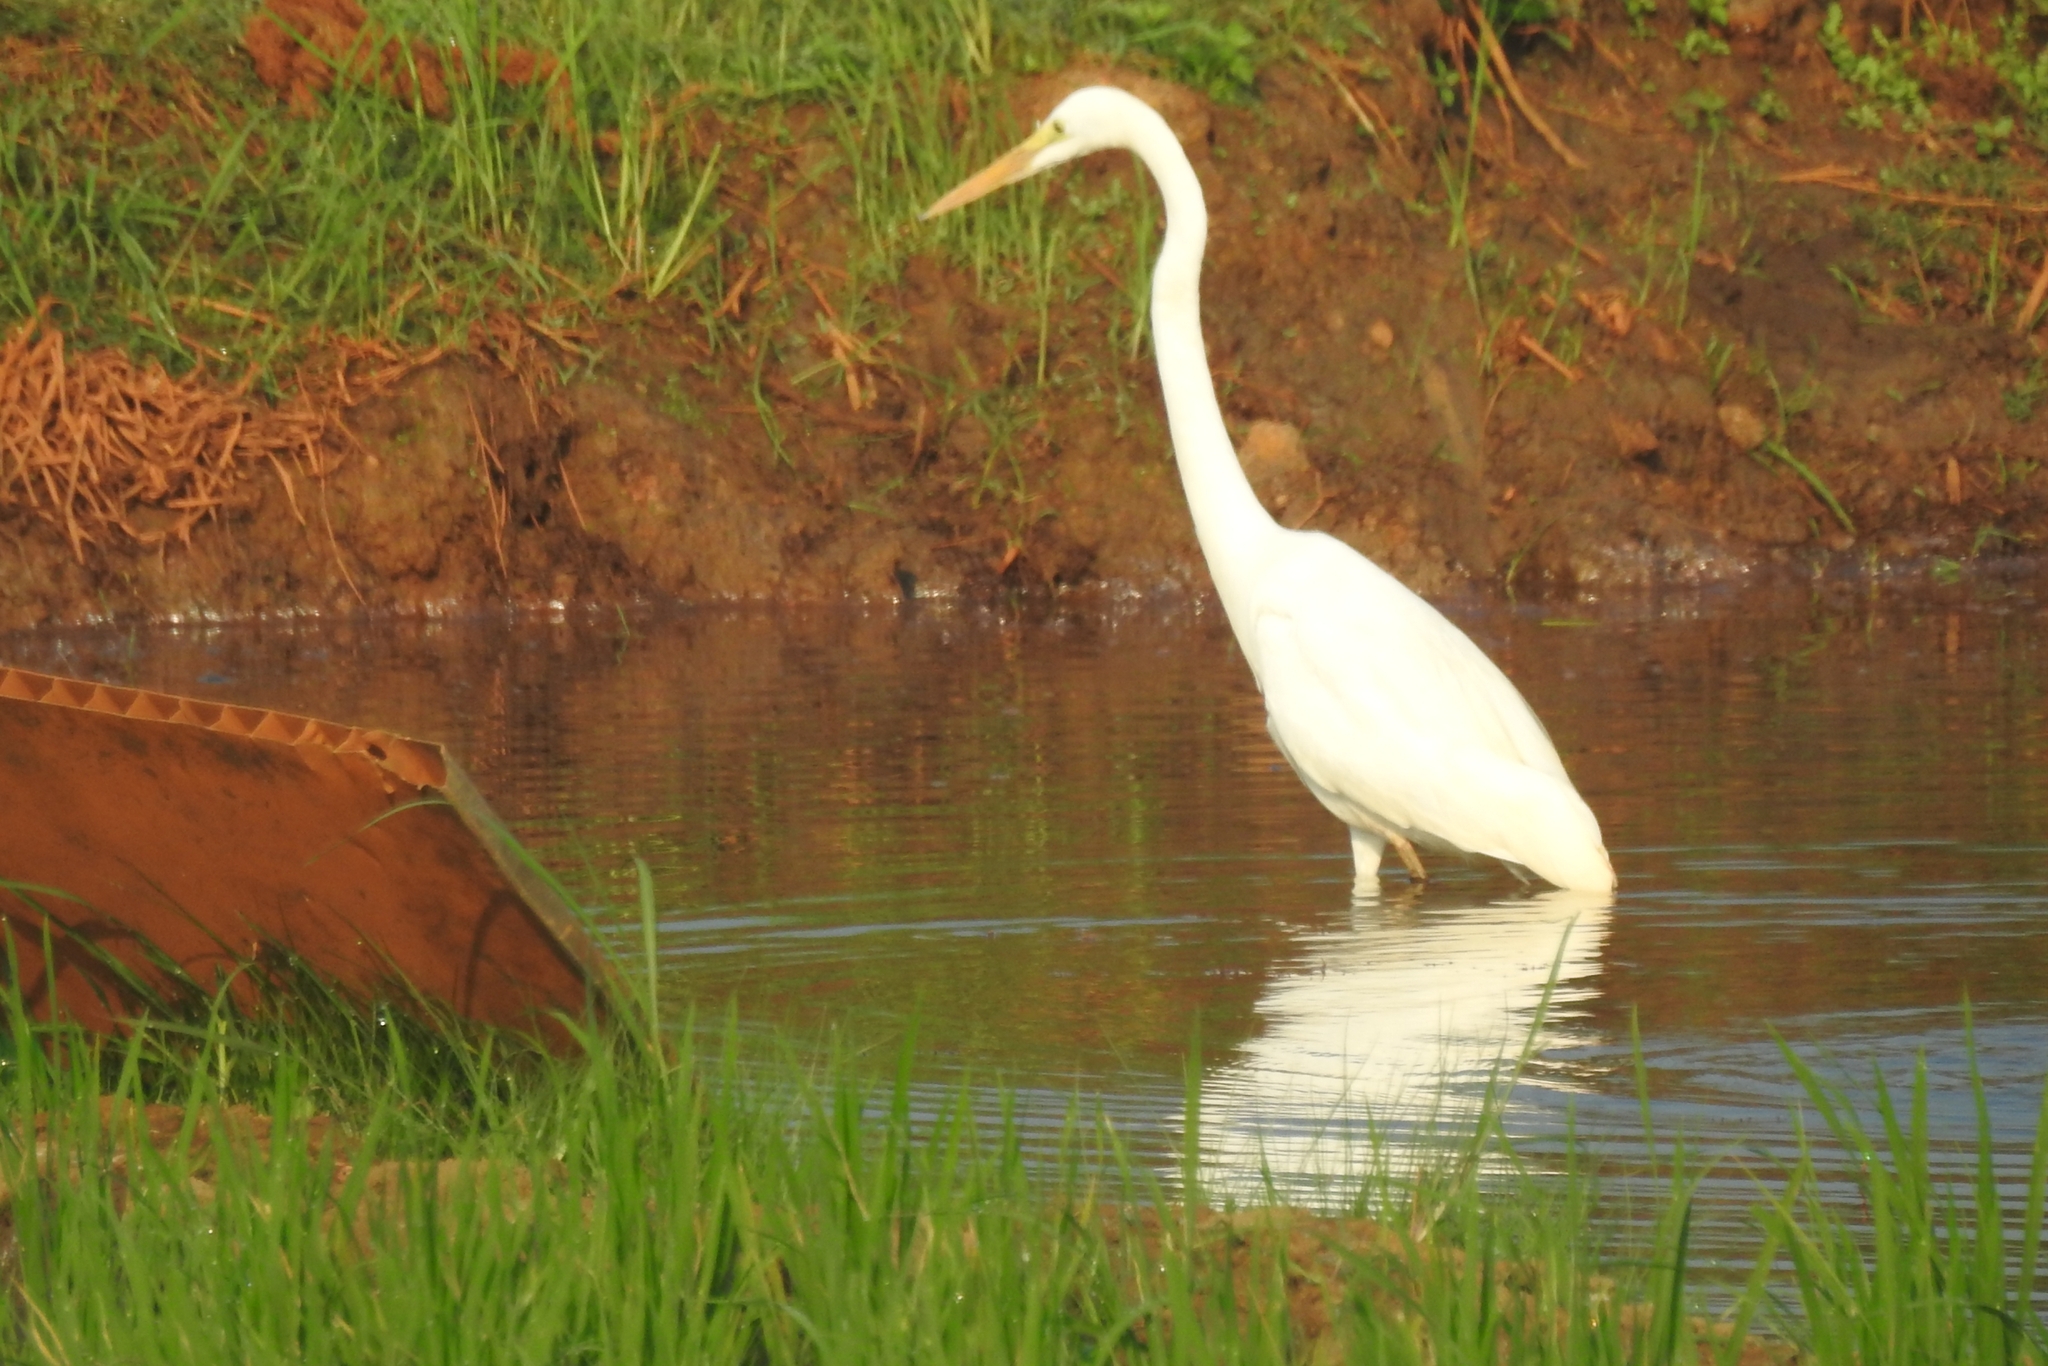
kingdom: Animalia
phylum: Chordata
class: Aves
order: Pelecaniformes
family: Ardeidae
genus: Ardea
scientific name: Ardea alba
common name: Great egret
